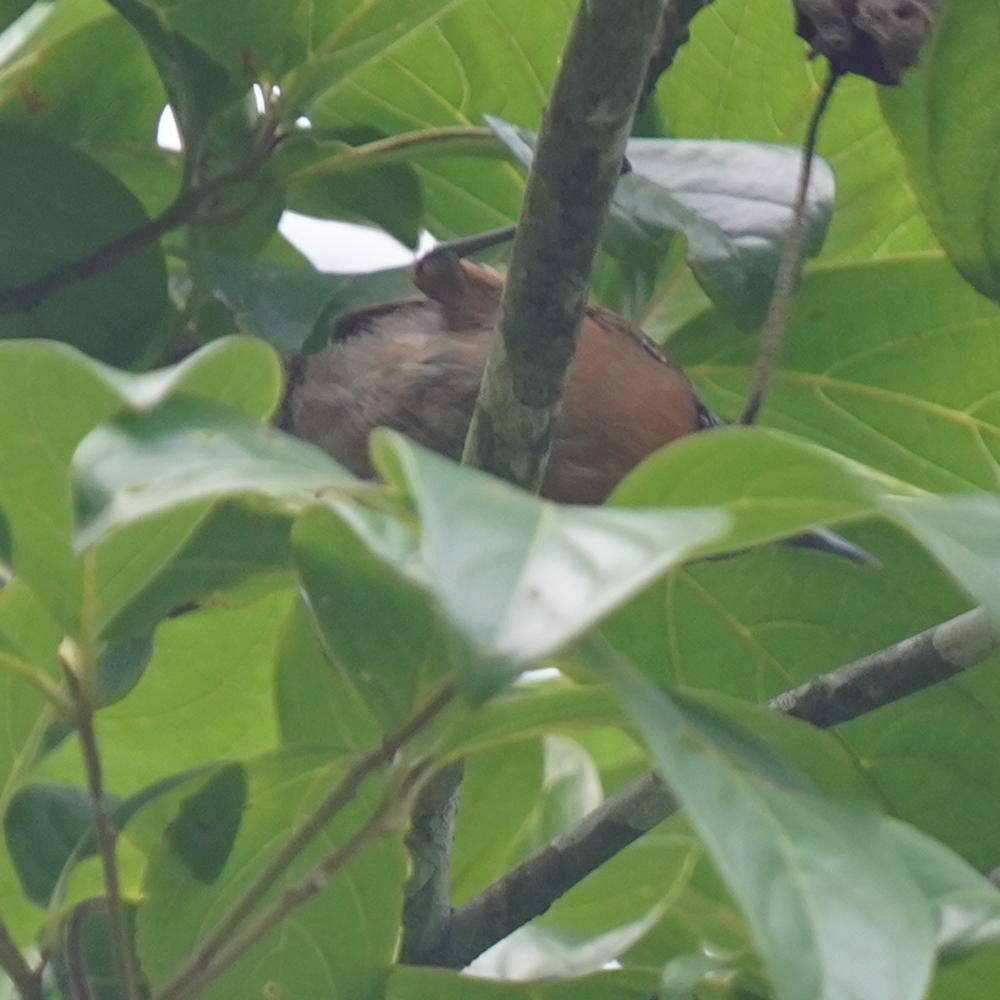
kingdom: Animalia
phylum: Chordata
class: Aves
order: Passeriformes
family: Troglodytidae
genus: Pheugopedius
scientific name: Pheugopedius rutilus
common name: Rufous-breasted wren
